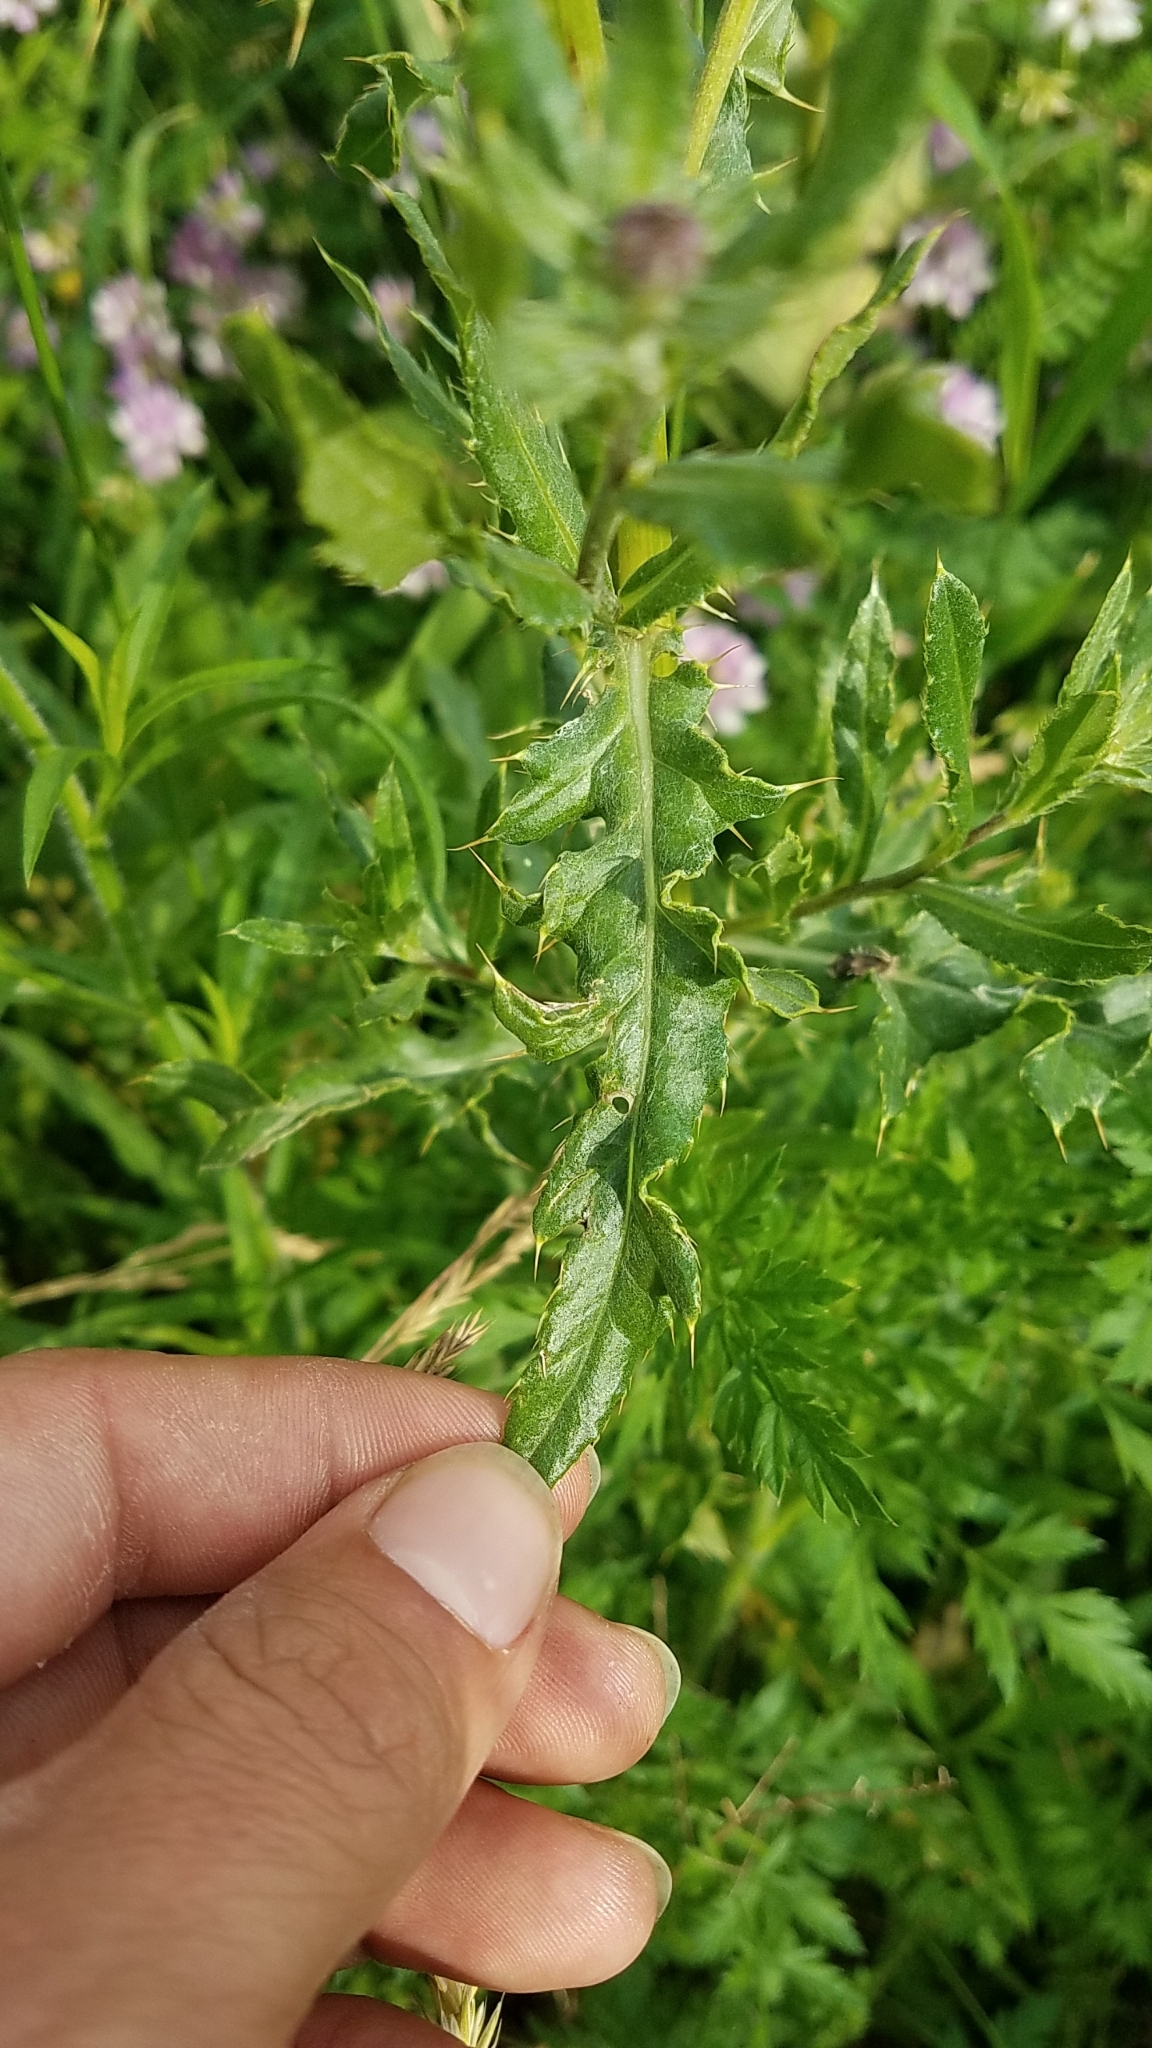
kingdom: Plantae
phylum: Tracheophyta
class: Magnoliopsida
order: Asterales
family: Asteraceae
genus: Cirsium
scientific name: Cirsium arvense
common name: Creeping thistle
